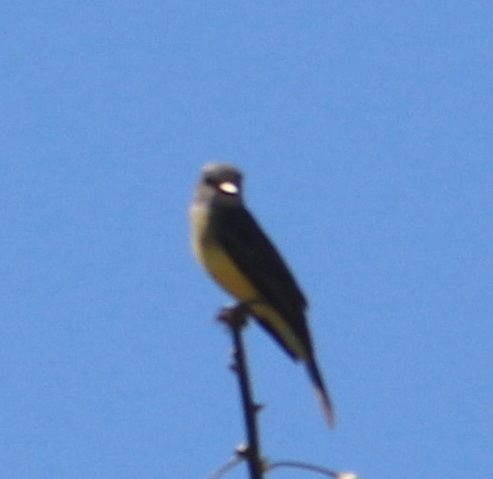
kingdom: Animalia
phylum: Chordata
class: Aves
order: Passeriformes
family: Tyrannidae
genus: Tyrannus
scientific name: Tyrannus melancholicus
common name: Tropical kingbird
